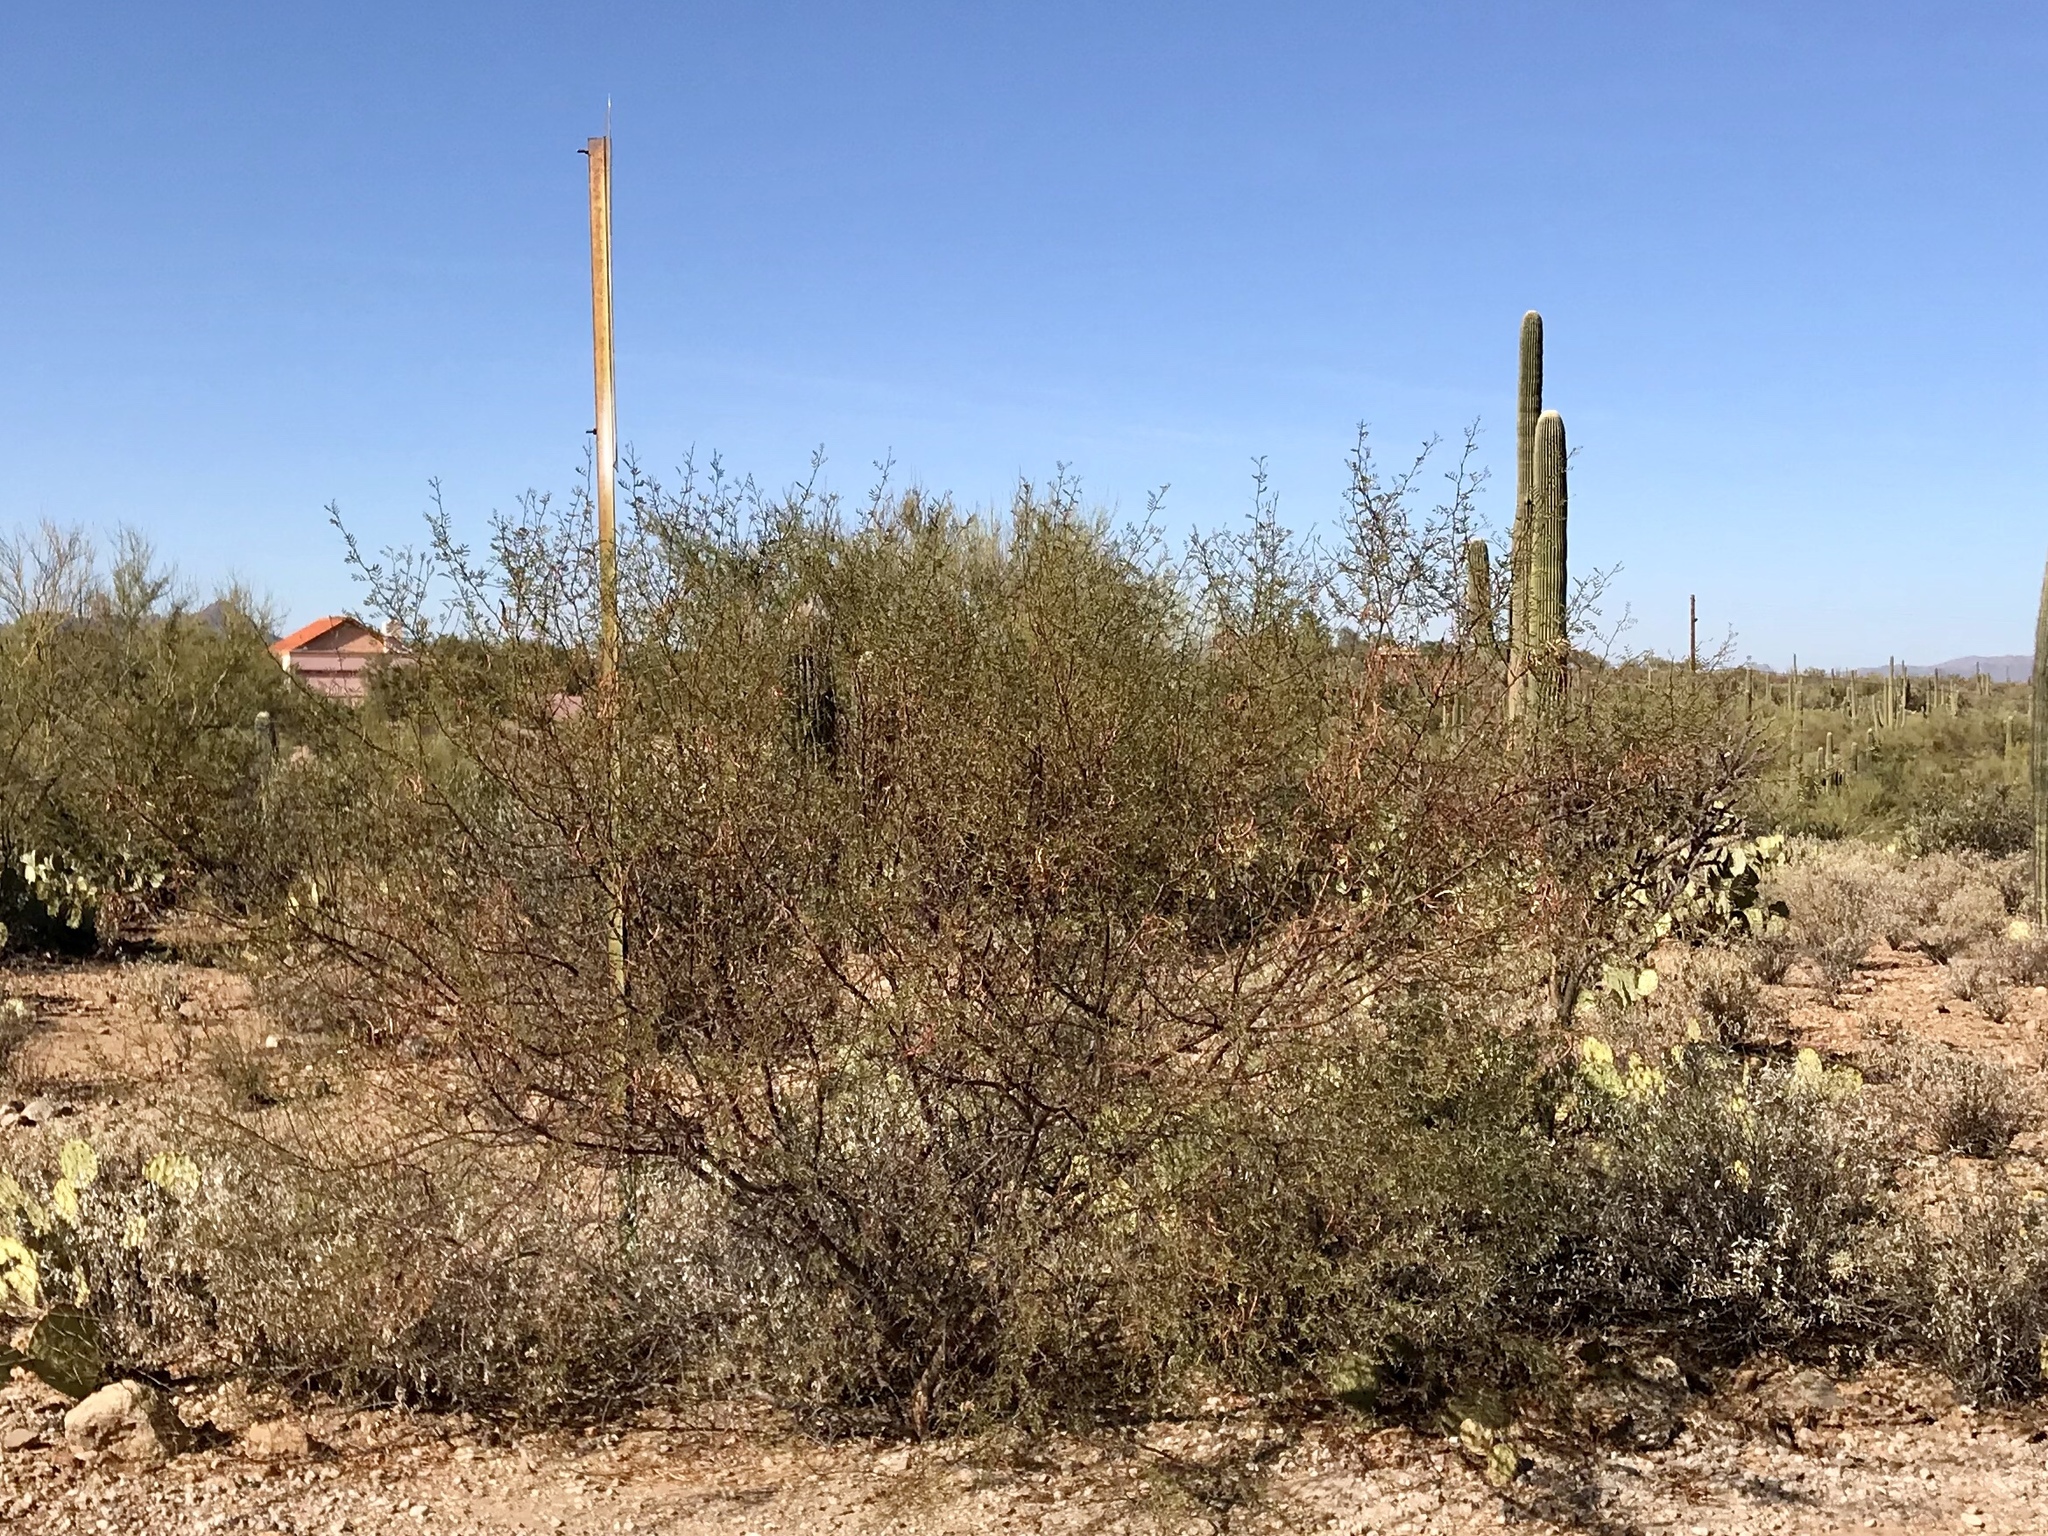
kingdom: Plantae
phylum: Tracheophyta
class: Magnoliopsida
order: Zygophyllales
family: Zygophyllaceae
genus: Larrea
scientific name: Larrea tridentata
